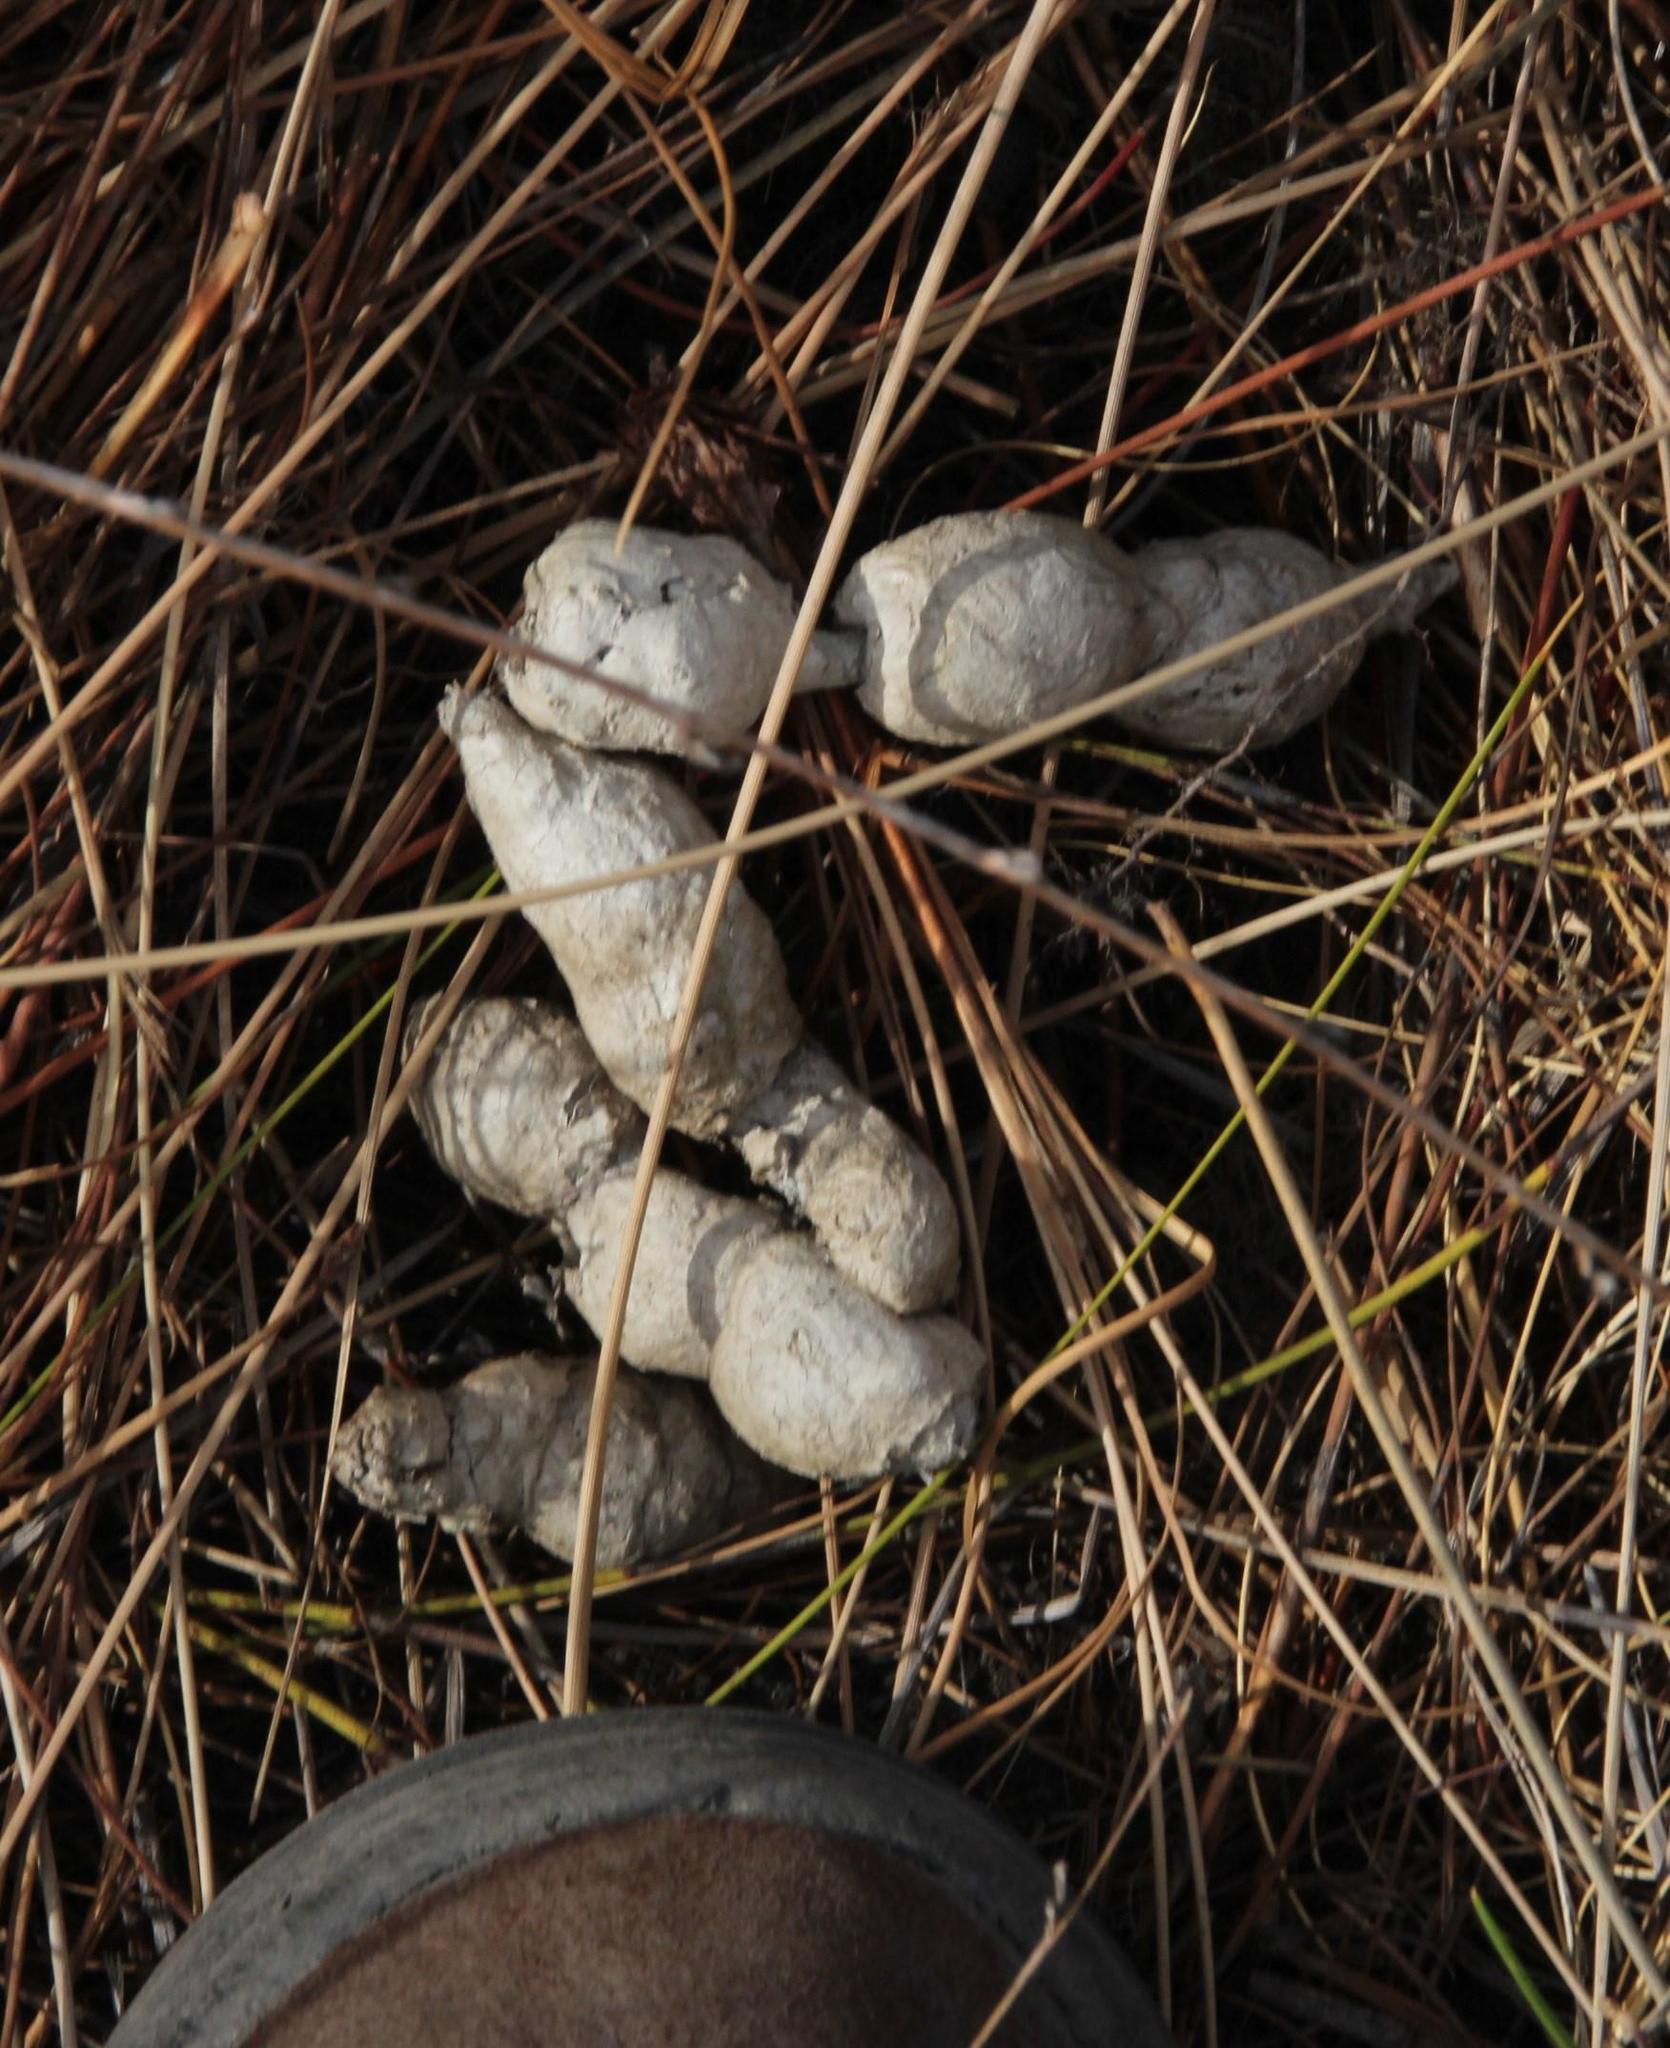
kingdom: Animalia
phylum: Chordata
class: Mammalia
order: Carnivora
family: Felidae
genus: Panthera
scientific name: Panthera pardus
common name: Leopard
